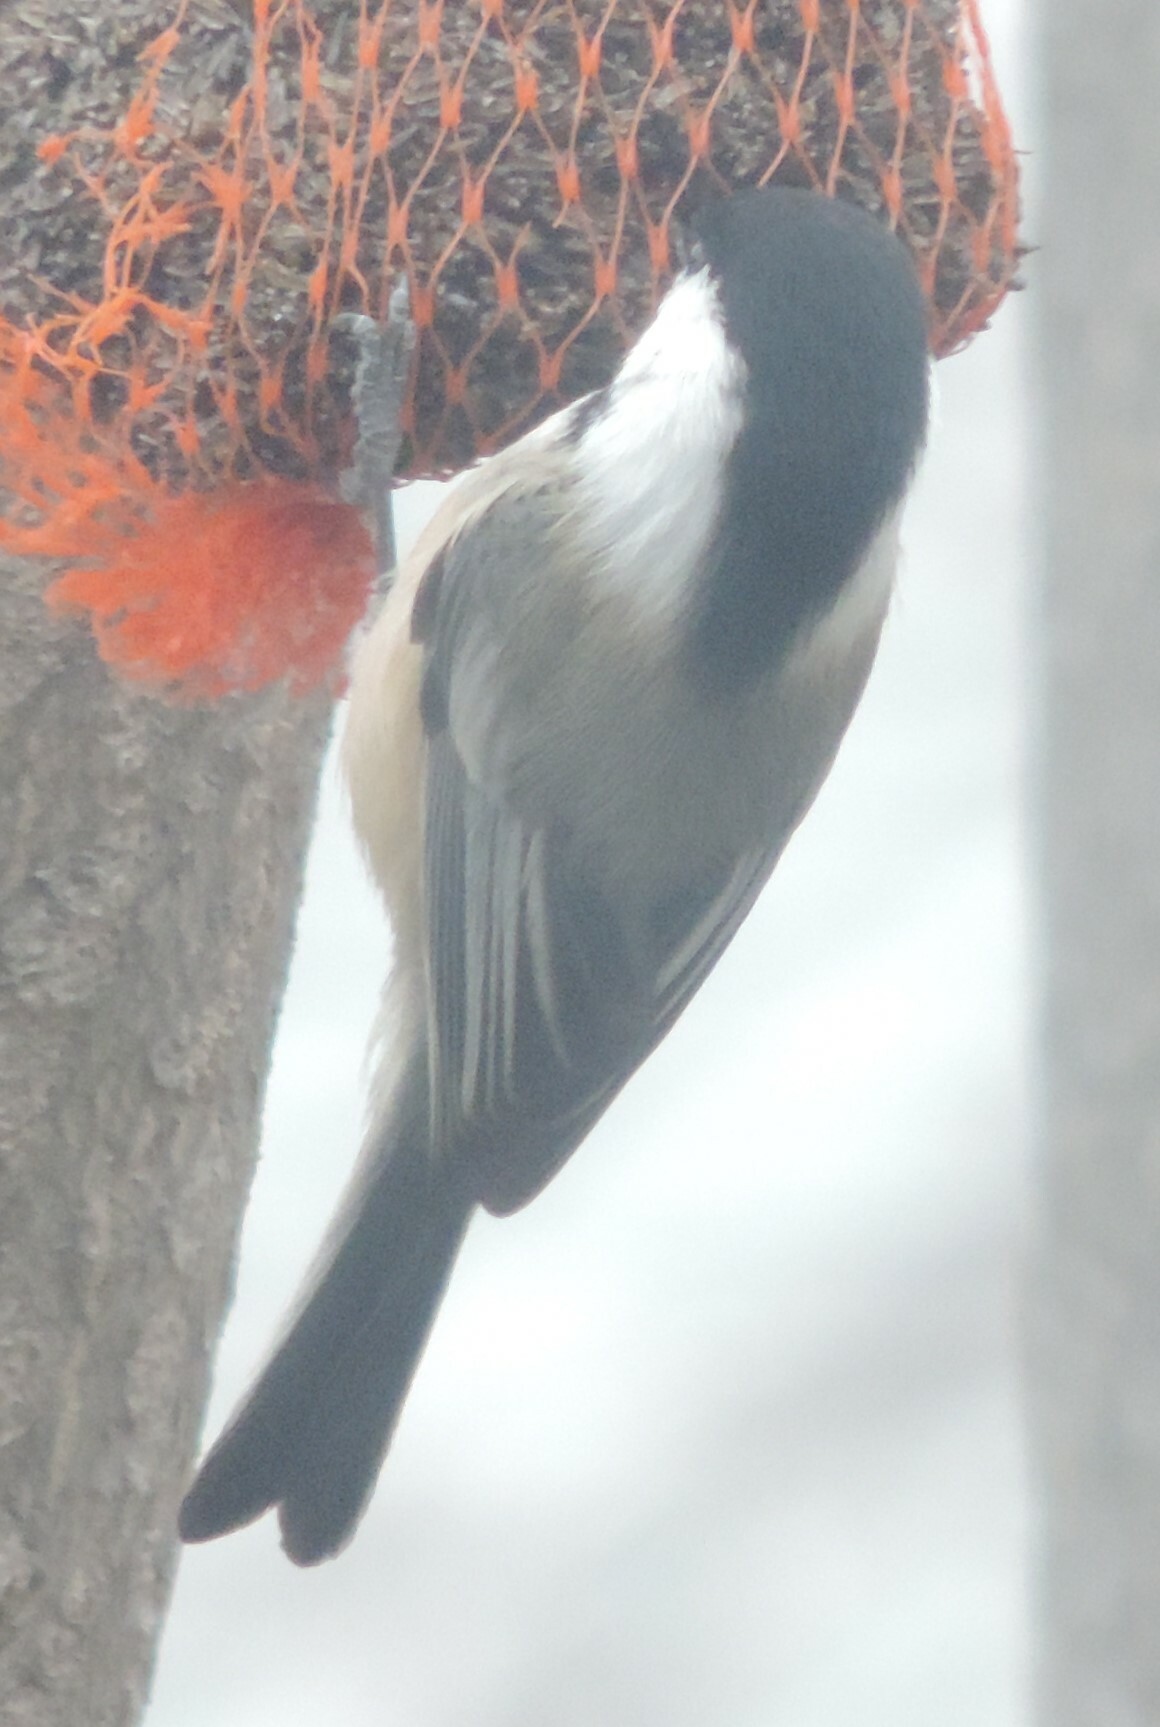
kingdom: Animalia
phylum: Chordata
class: Aves
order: Passeriformes
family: Paridae
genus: Poecile
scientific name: Poecile atricapillus
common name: Black-capped chickadee
